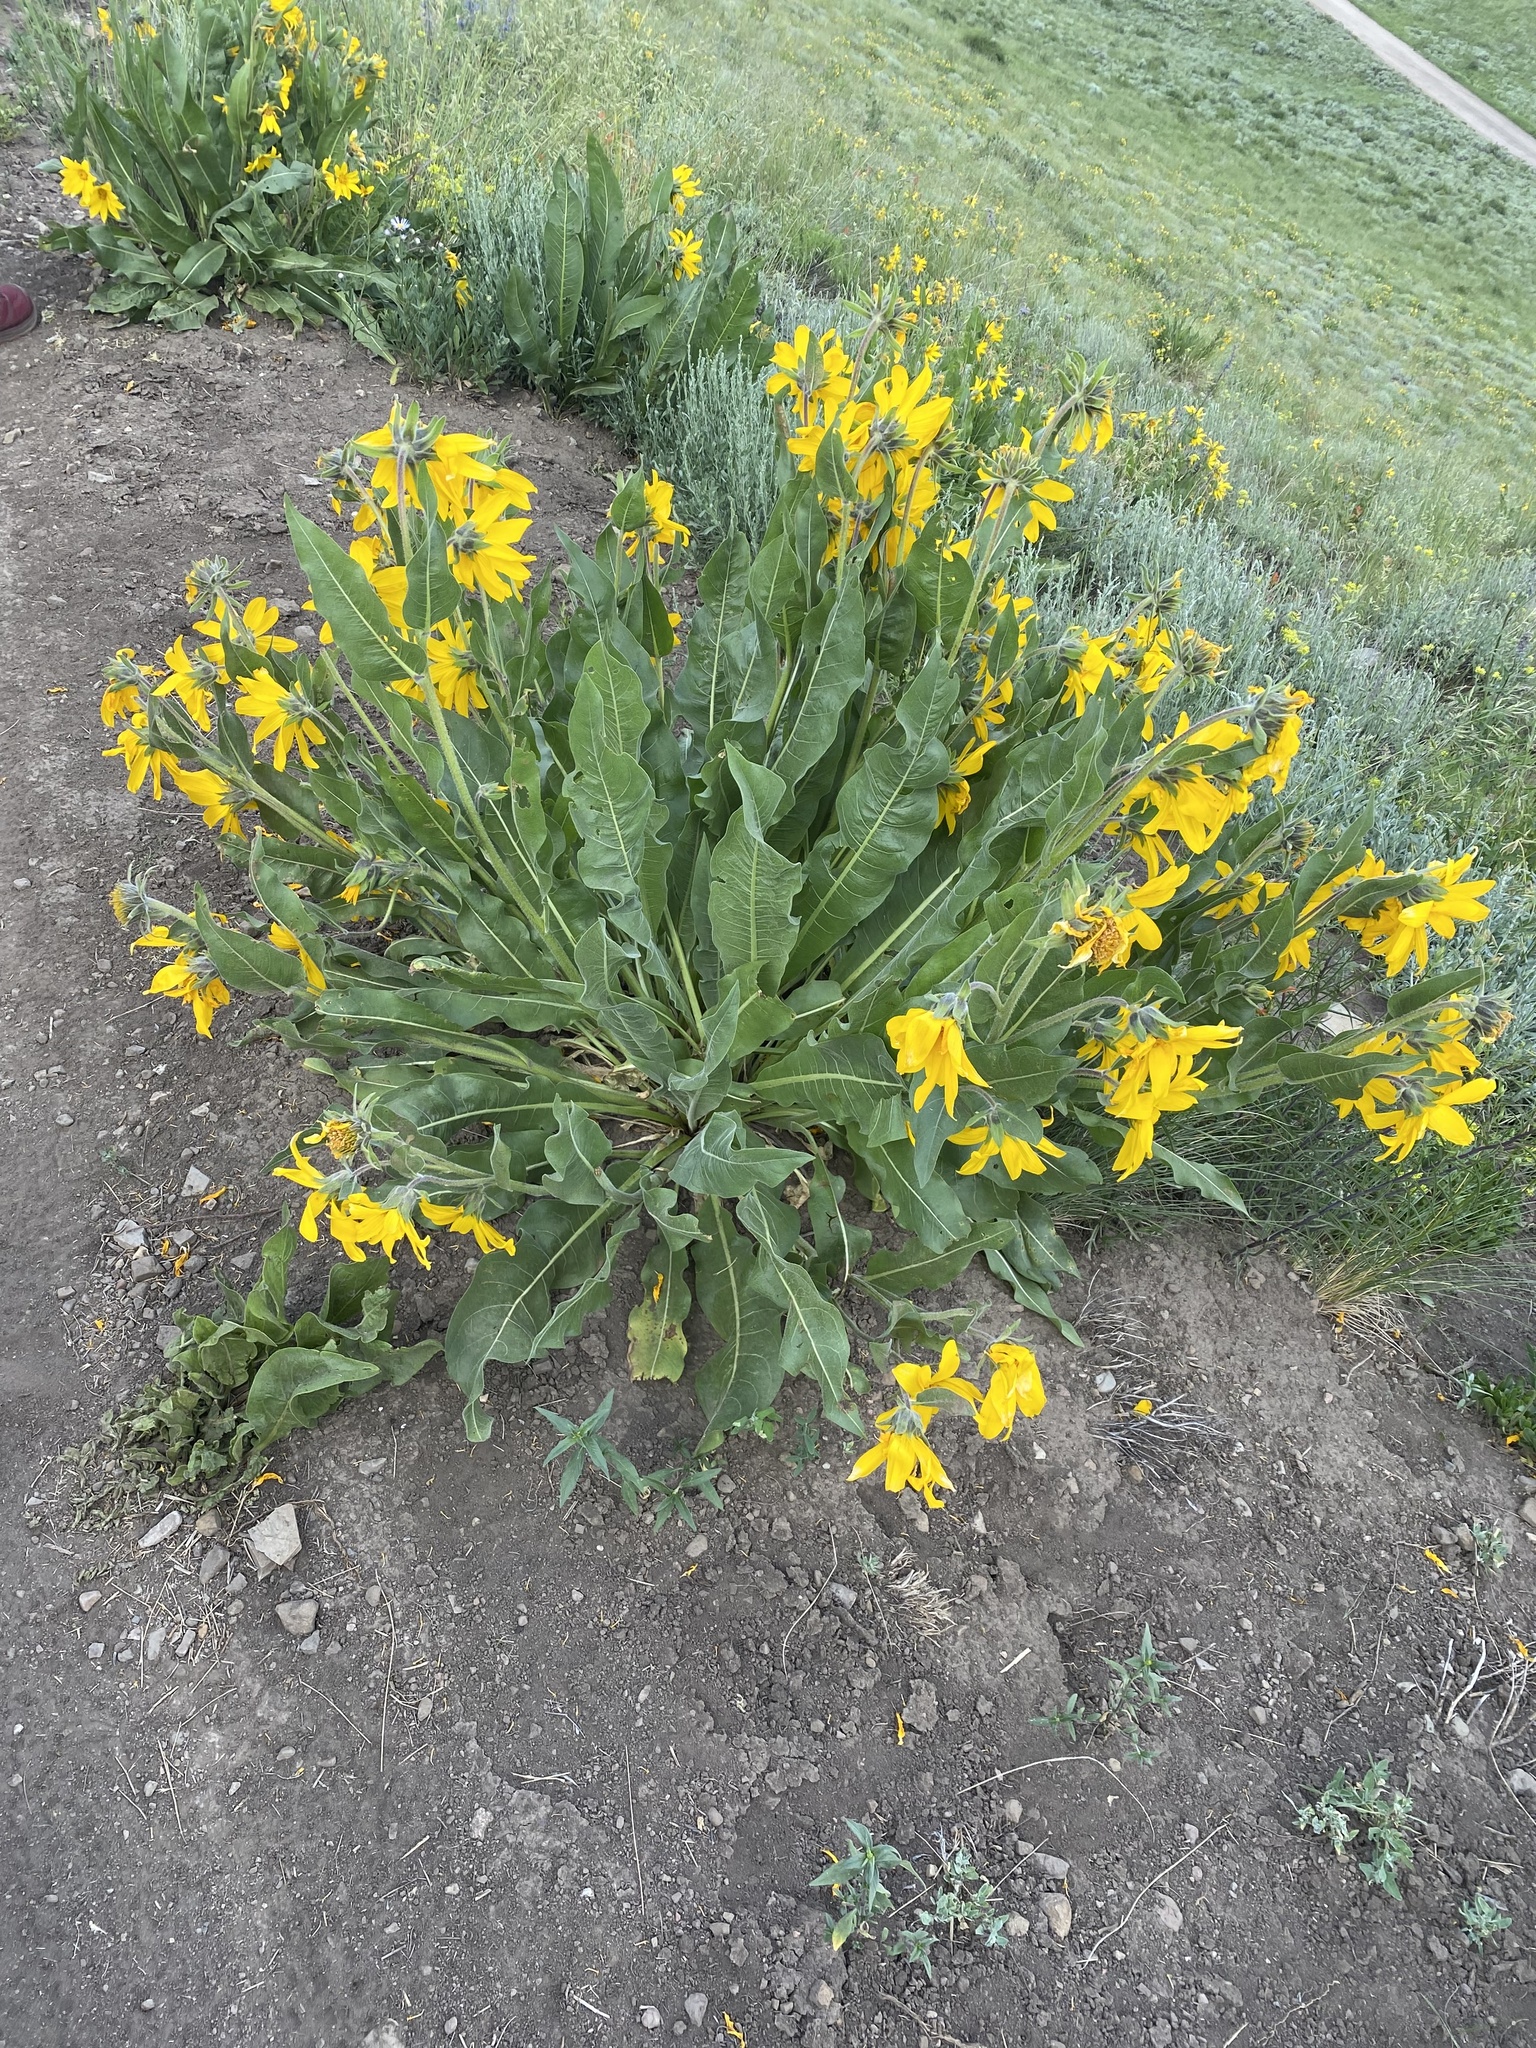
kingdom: Plantae
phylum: Tracheophyta
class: Magnoliopsida
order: Asterales
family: Asteraceae
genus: Wyethia
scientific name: Wyethia amplexicaulis
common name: Northern mule's-ears
